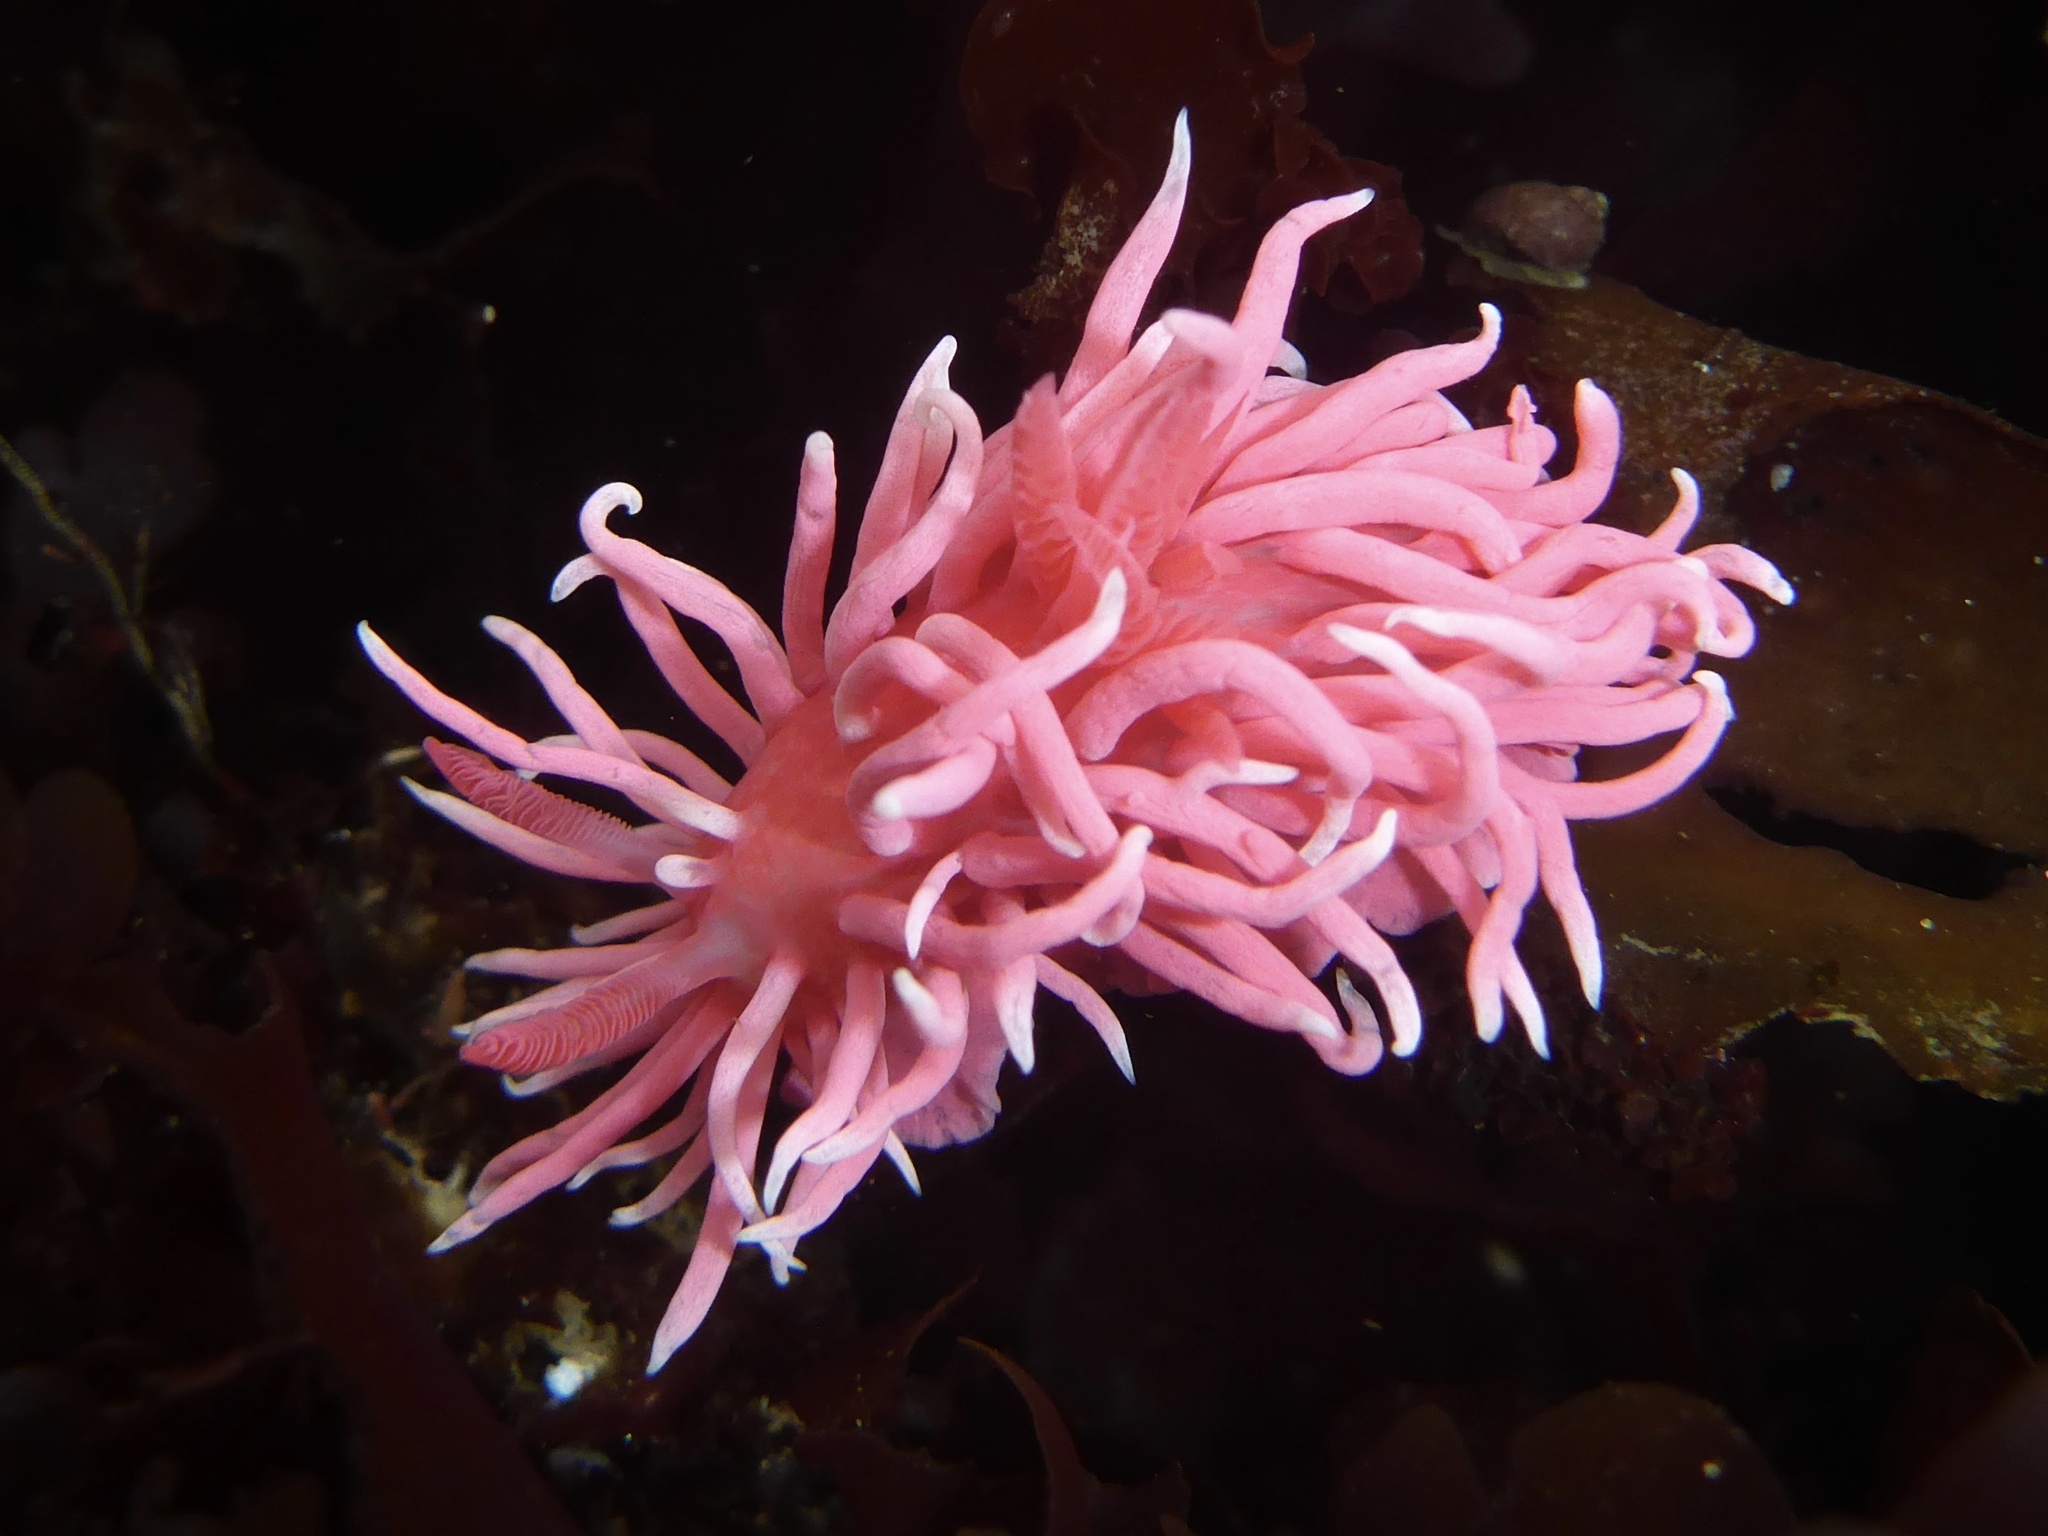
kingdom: Animalia
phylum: Mollusca
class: Gastropoda
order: Nudibranchia
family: Goniodorididae
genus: Okenia
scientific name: Okenia
